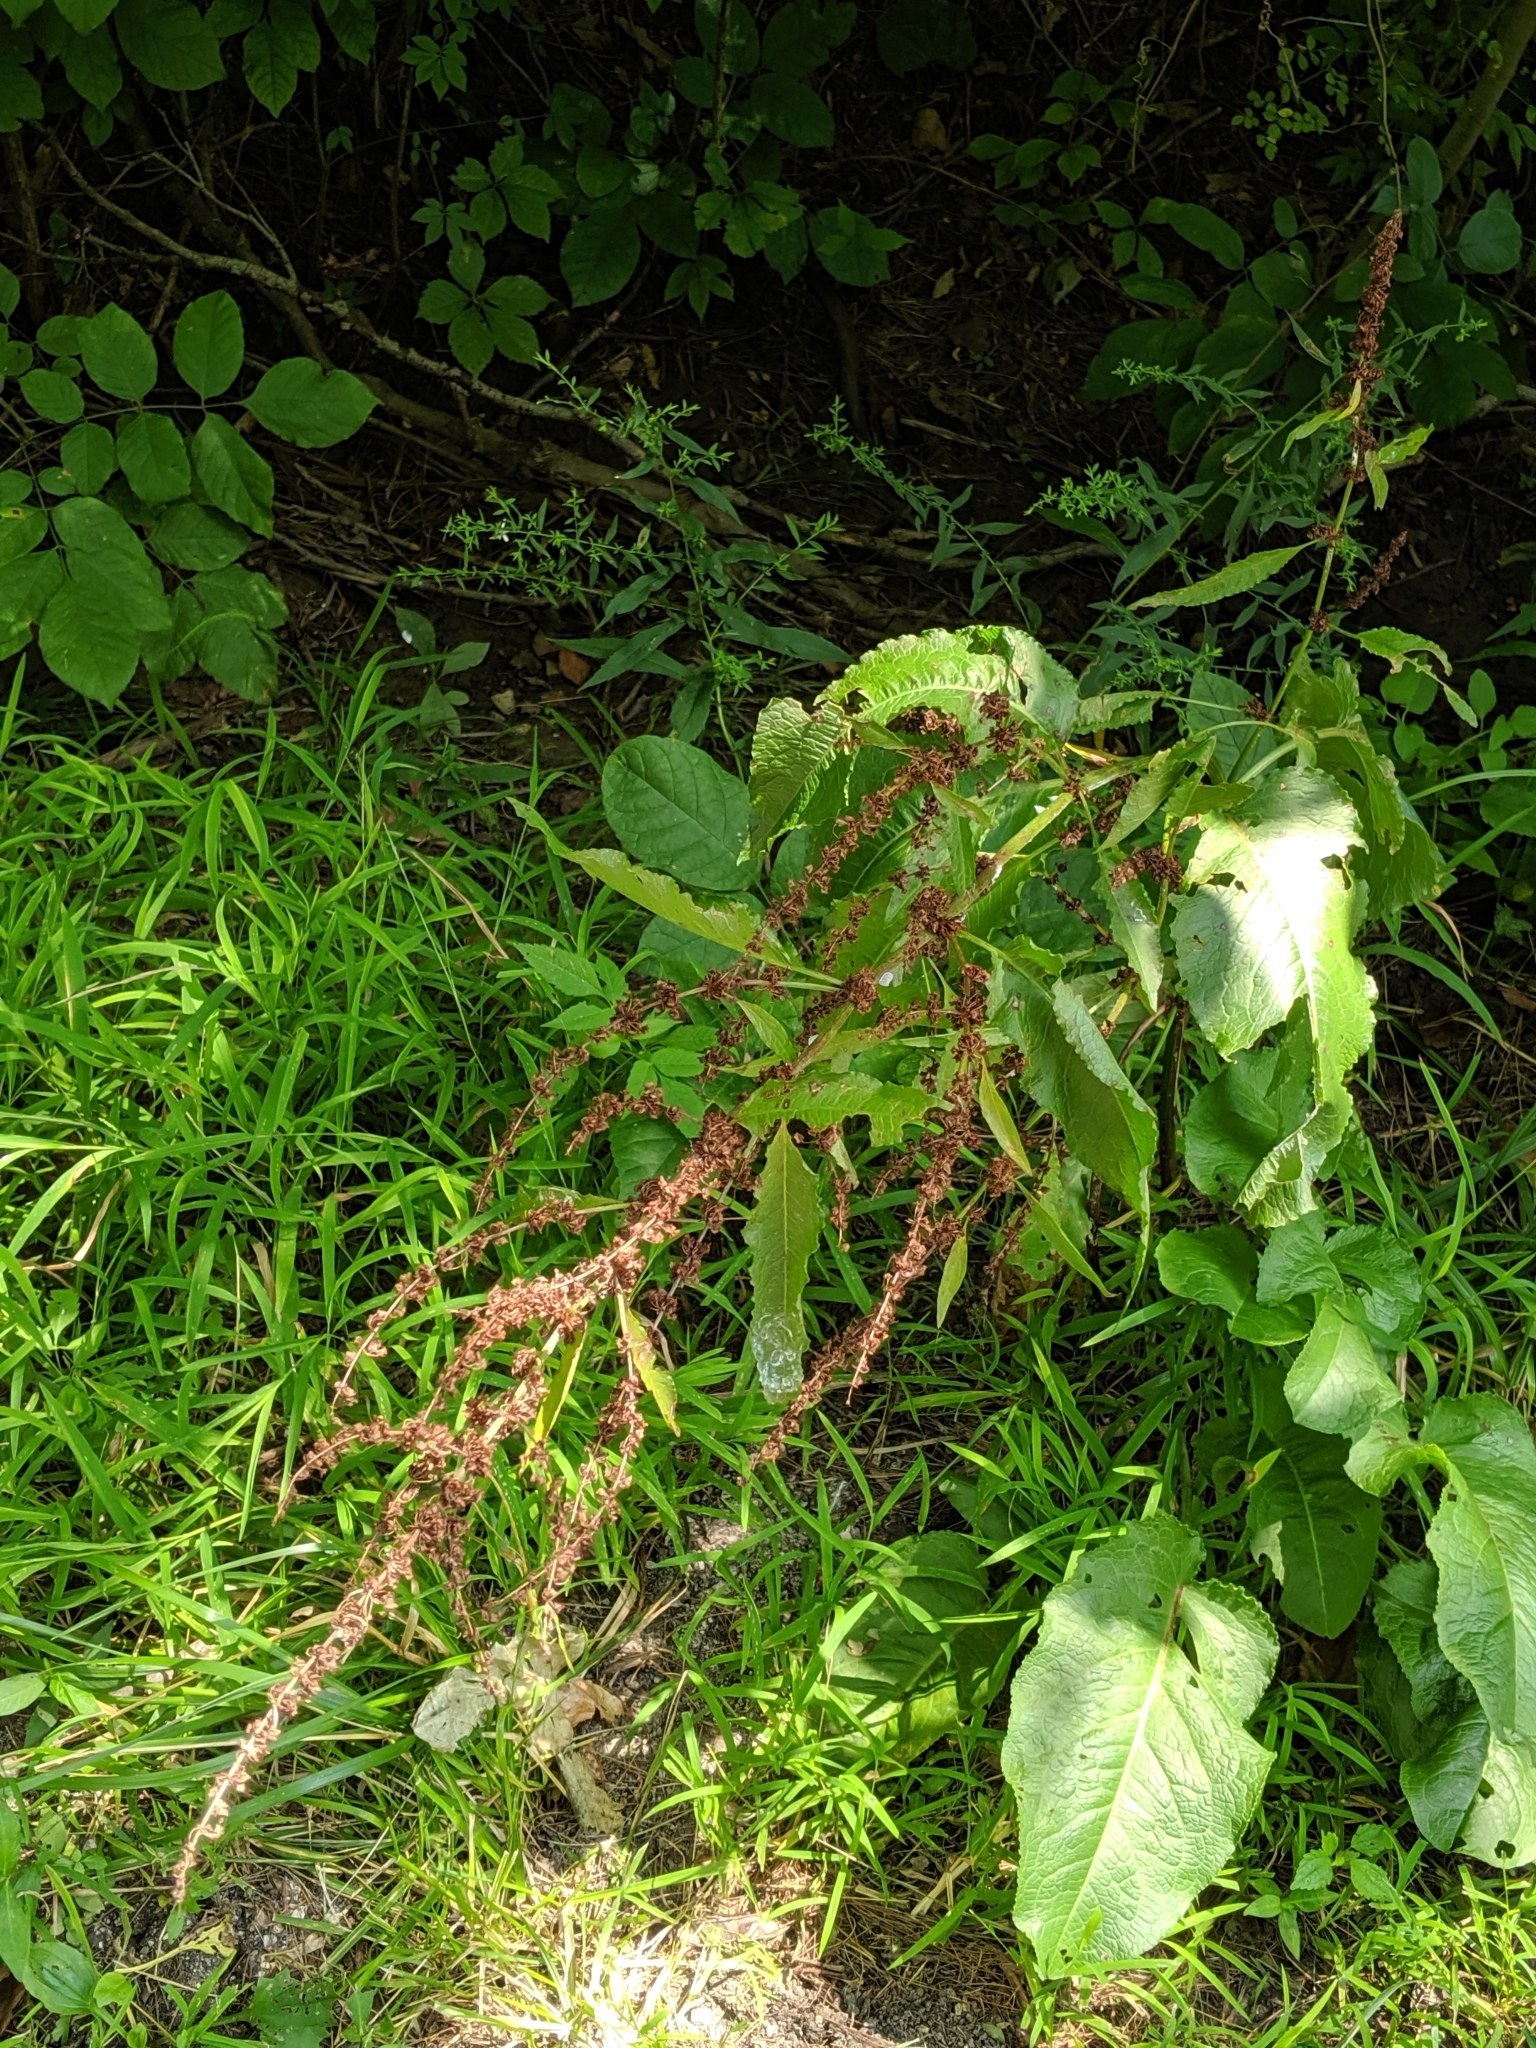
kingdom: Plantae
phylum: Tracheophyta
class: Magnoliopsida
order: Caryophyllales
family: Polygonaceae
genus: Rumex
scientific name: Rumex obtusifolius
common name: Bitter dock
